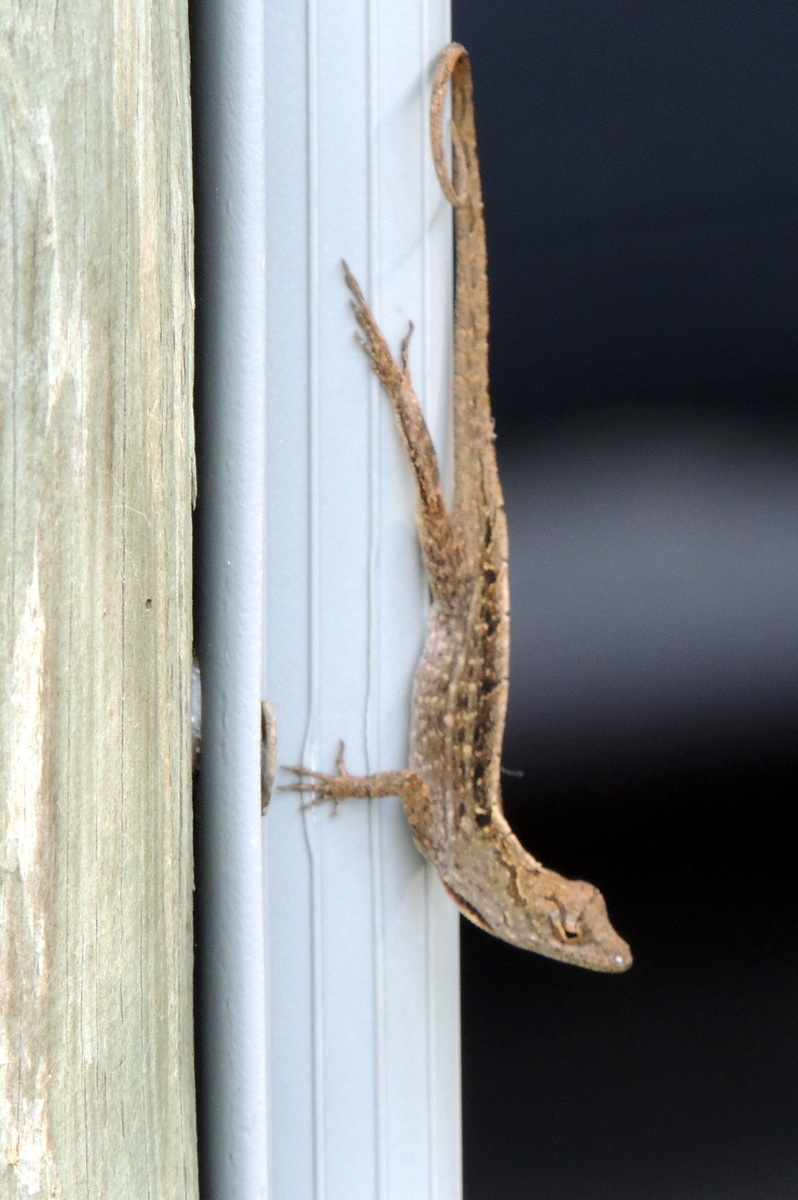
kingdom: Animalia
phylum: Chordata
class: Squamata
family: Dactyloidae
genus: Anolis
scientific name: Anolis sagrei
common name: Brown anole
